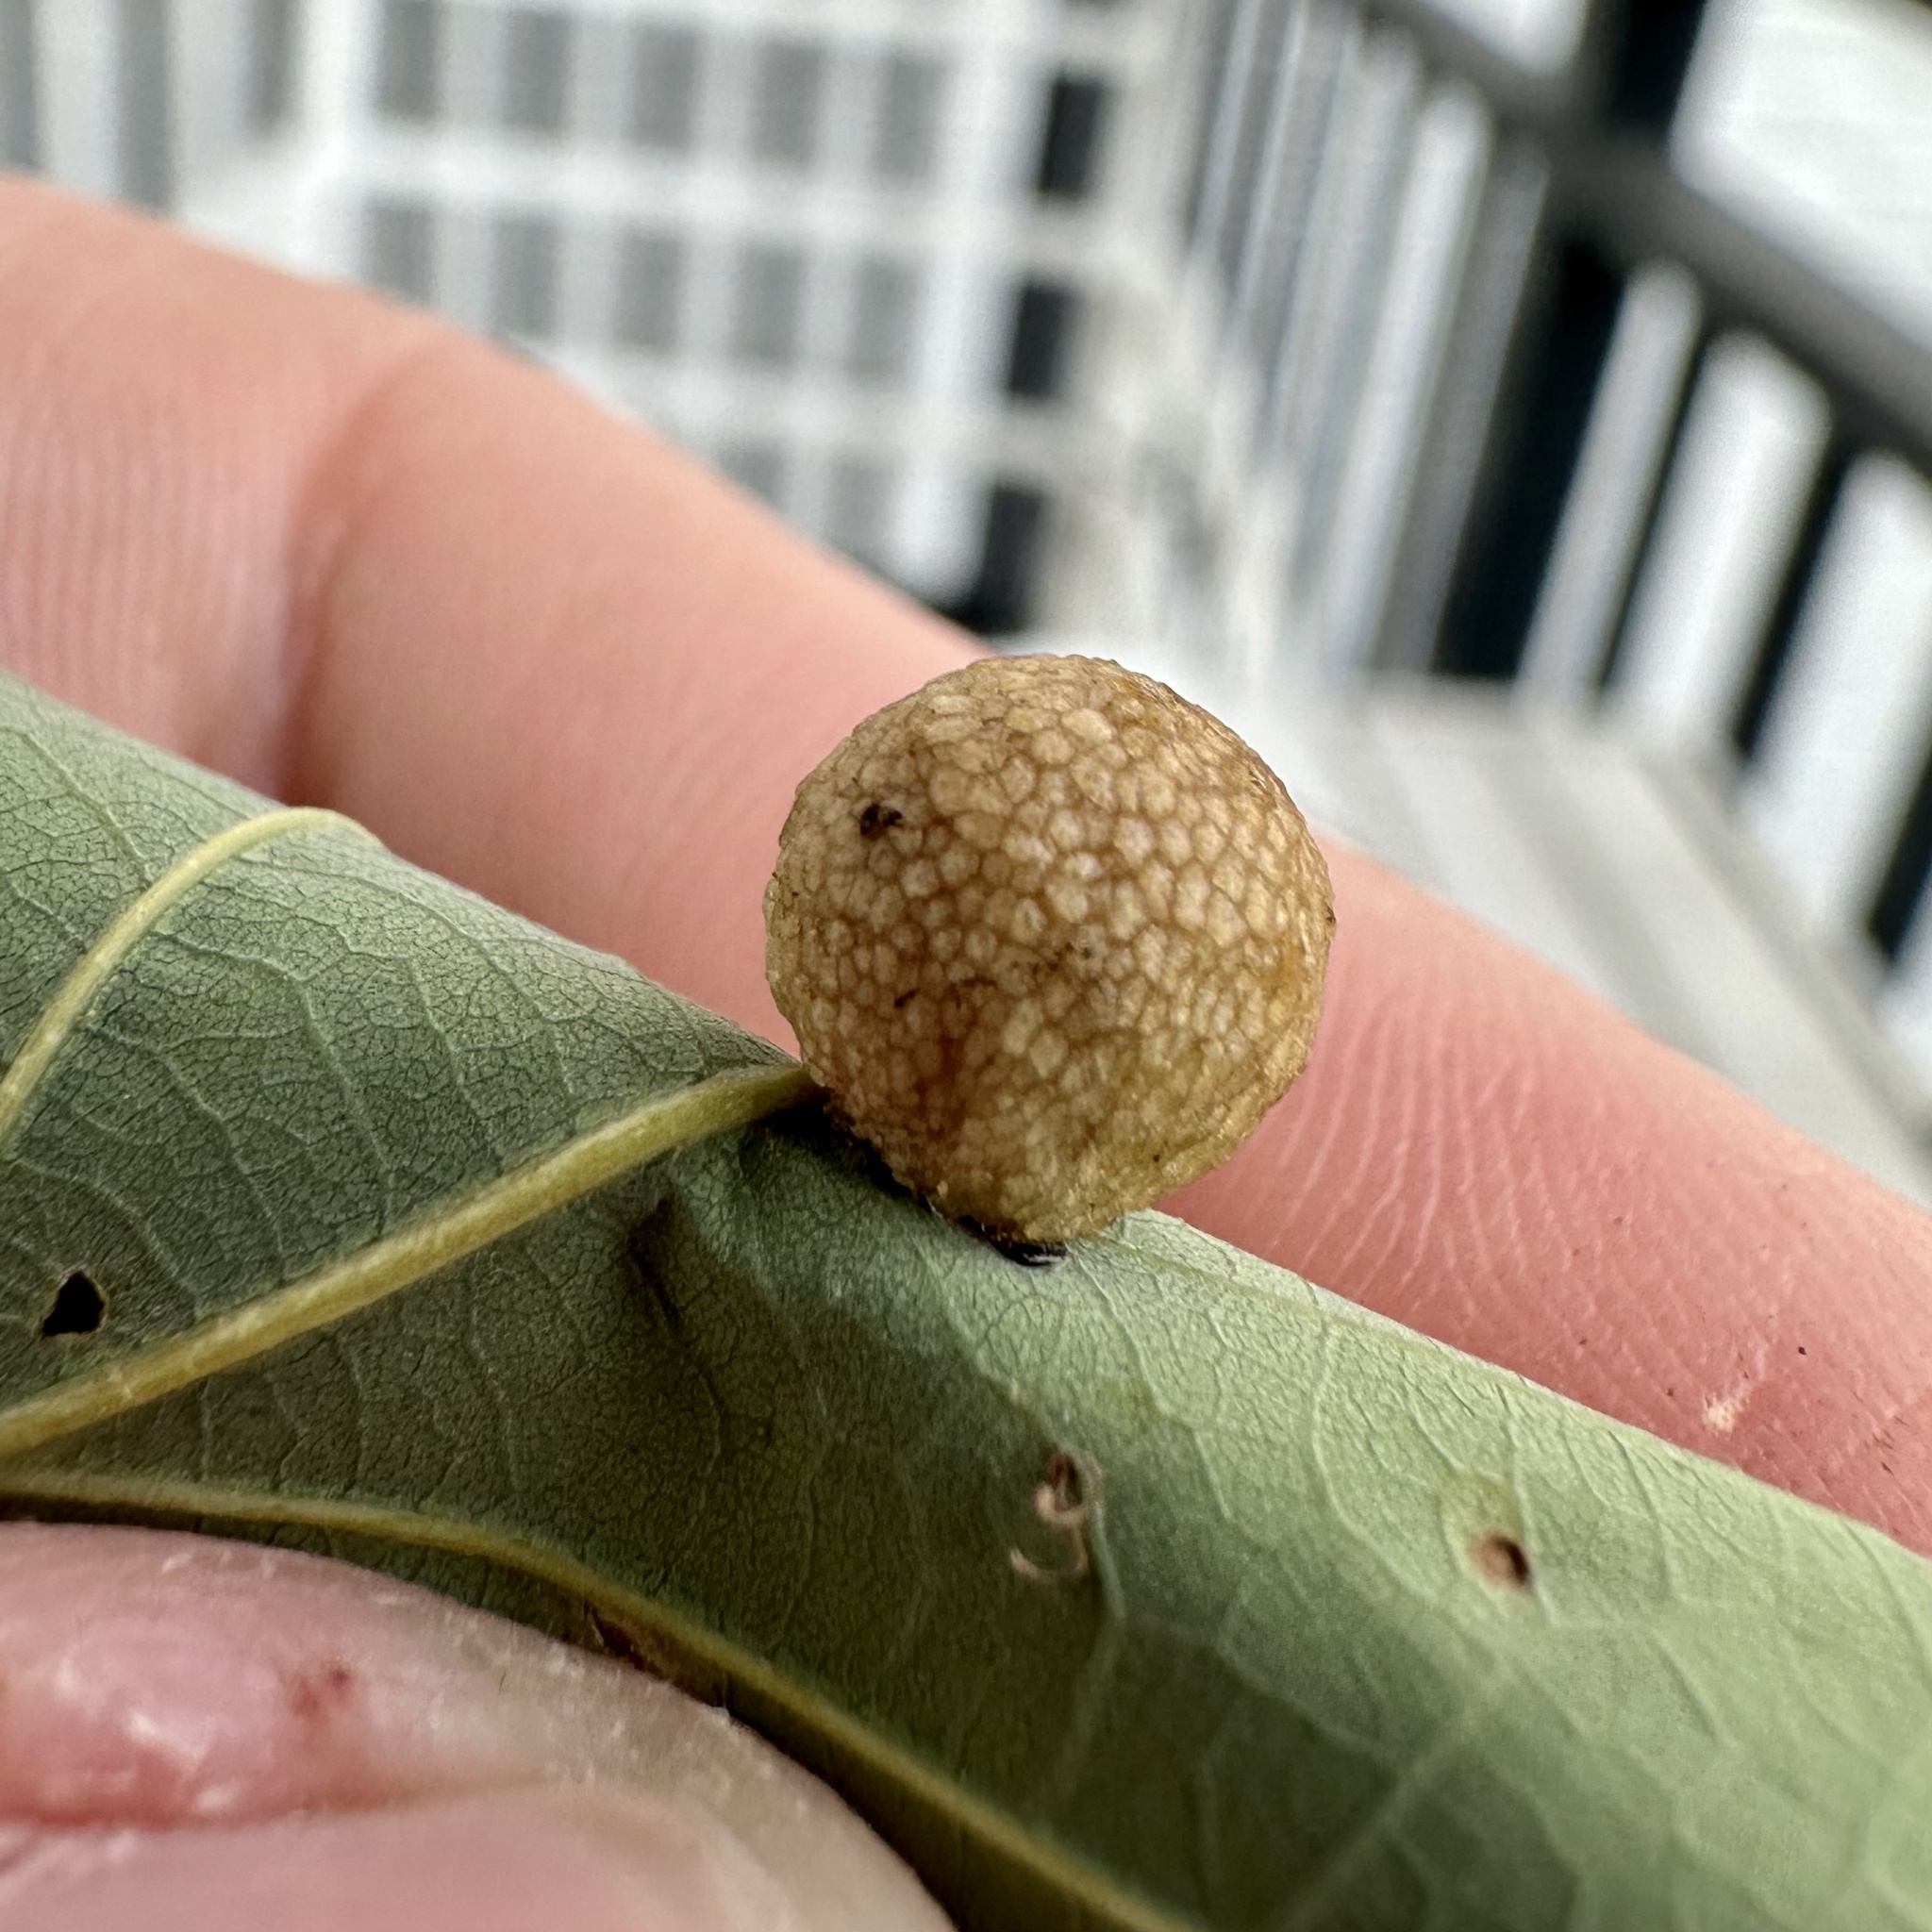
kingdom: Animalia
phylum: Arthropoda
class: Insecta
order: Hymenoptera
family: Cynipidae
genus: Acraspis
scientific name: Acraspis
